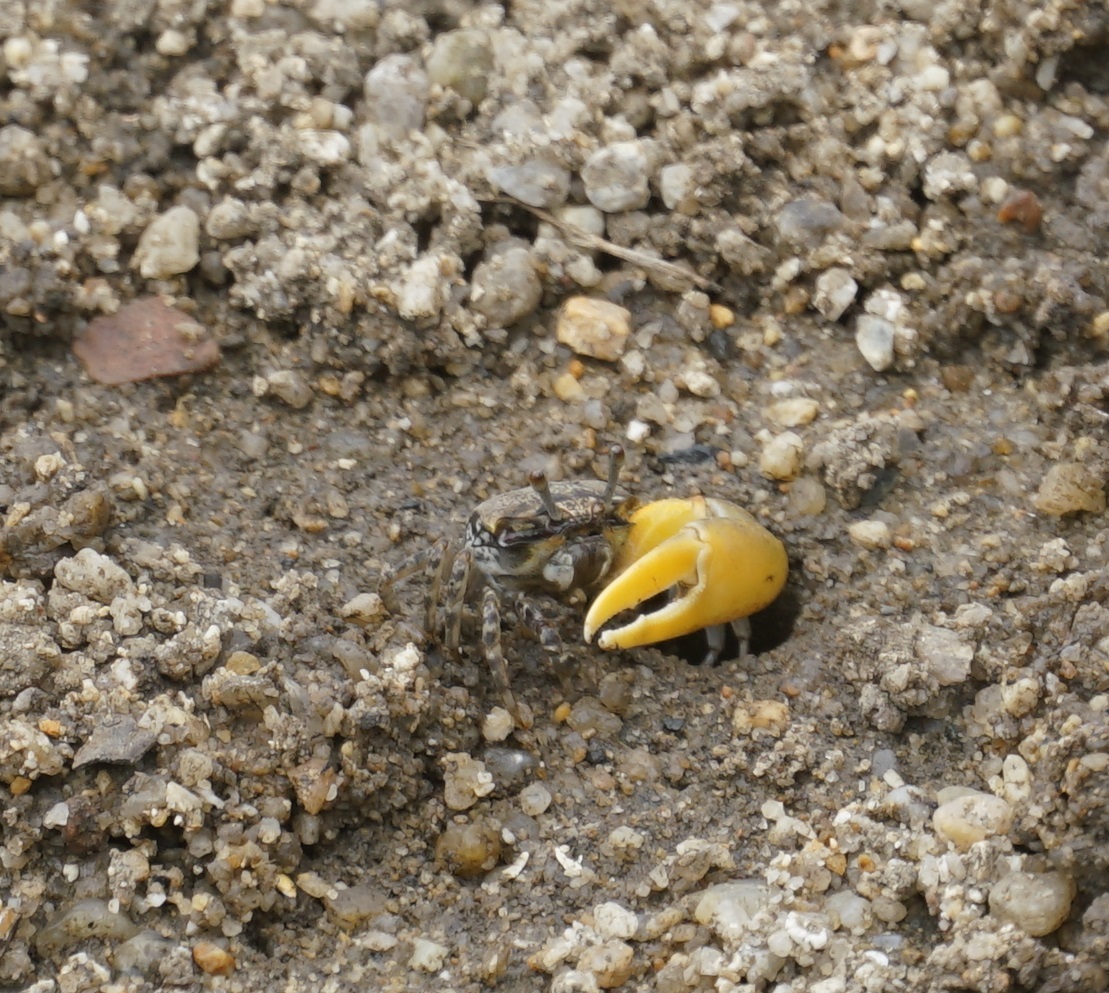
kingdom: Animalia
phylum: Arthropoda
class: Malacostraca
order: Decapoda
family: Ocypodidae
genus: Austruca
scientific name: Austruca perplexa
